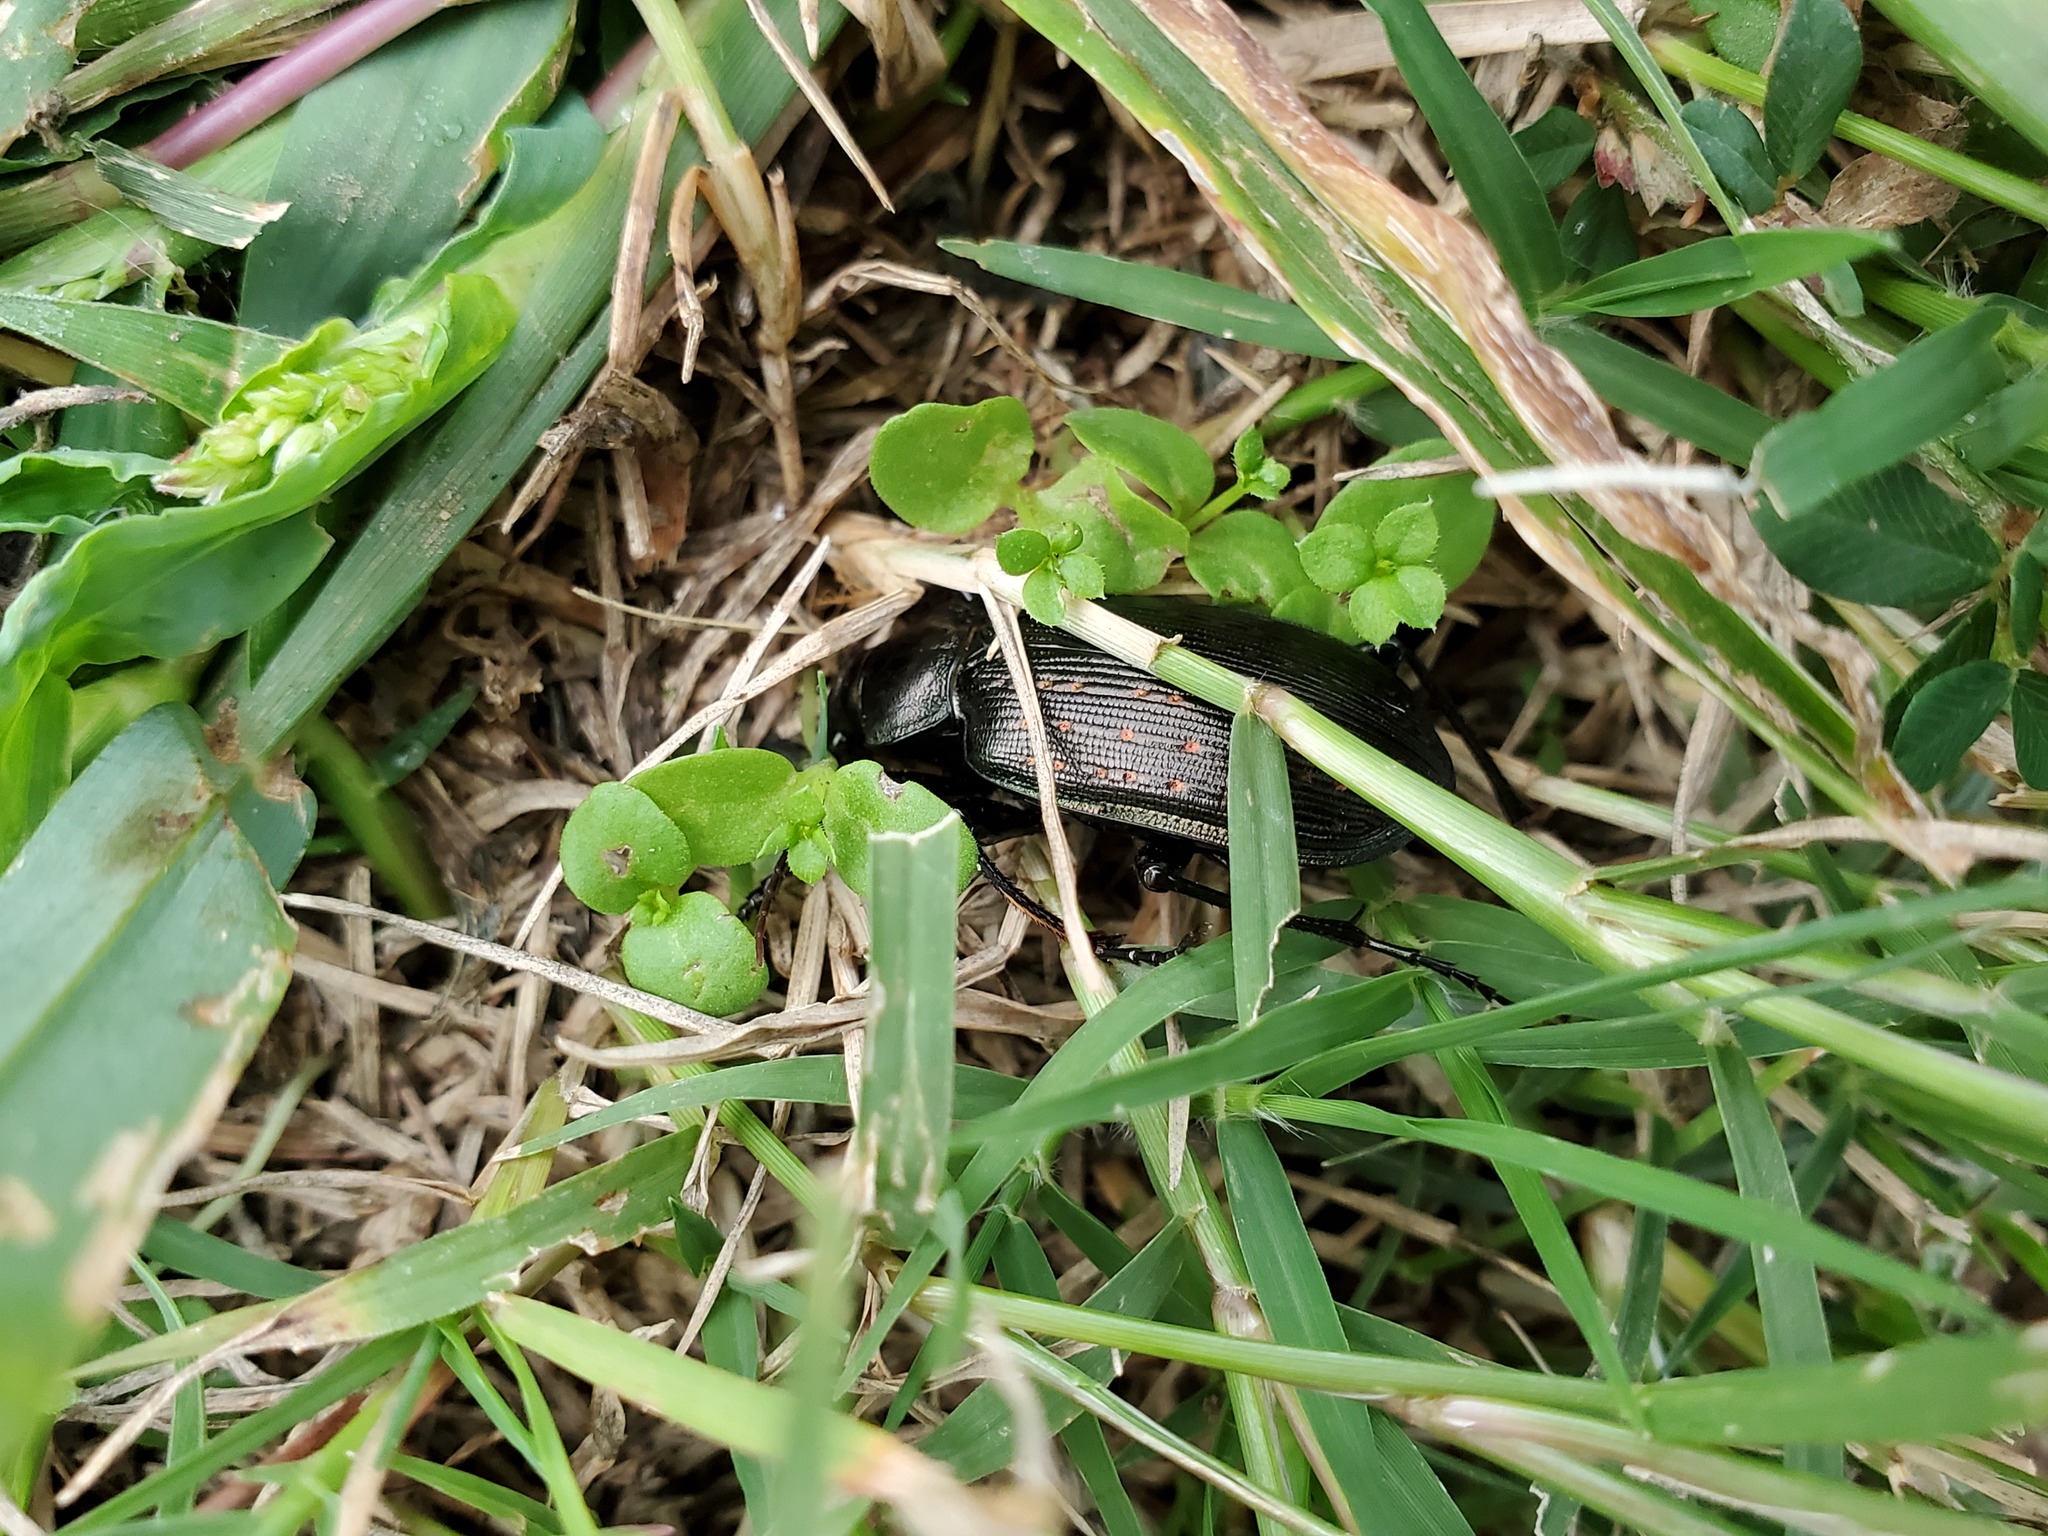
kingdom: Animalia
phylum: Arthropoda
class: Insecta
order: Coleoptera
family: Carabidae
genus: Calosoma
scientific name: Calosoma sayi
